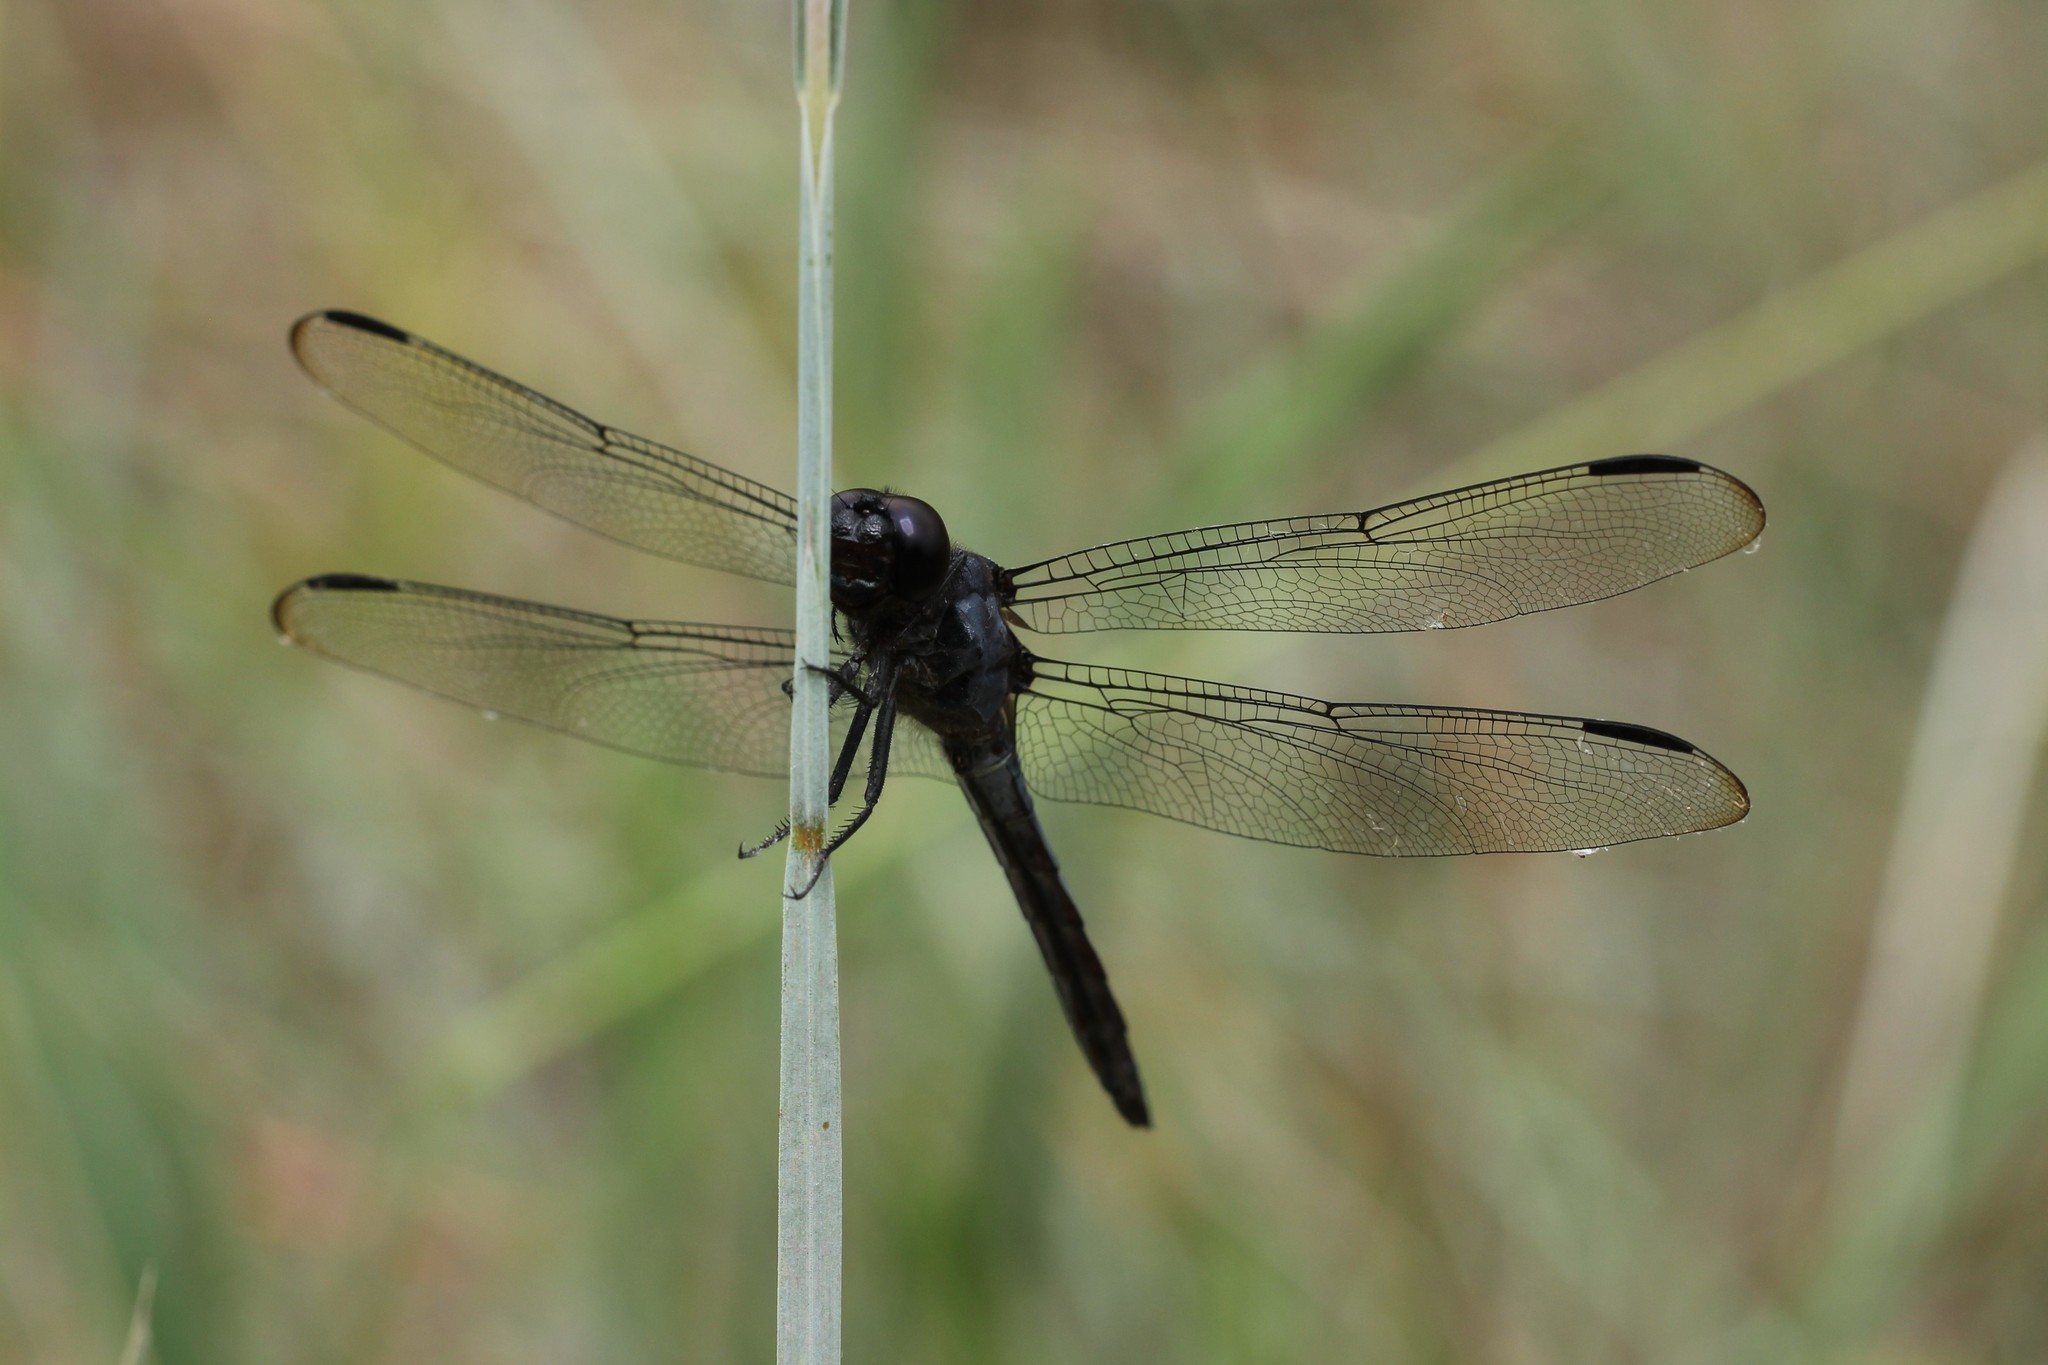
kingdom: Animalia
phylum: Arthropoda
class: Insecta
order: Odonata
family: Libellulidae
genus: Libellula
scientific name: Libellula incesta
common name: Slaty skimmer
